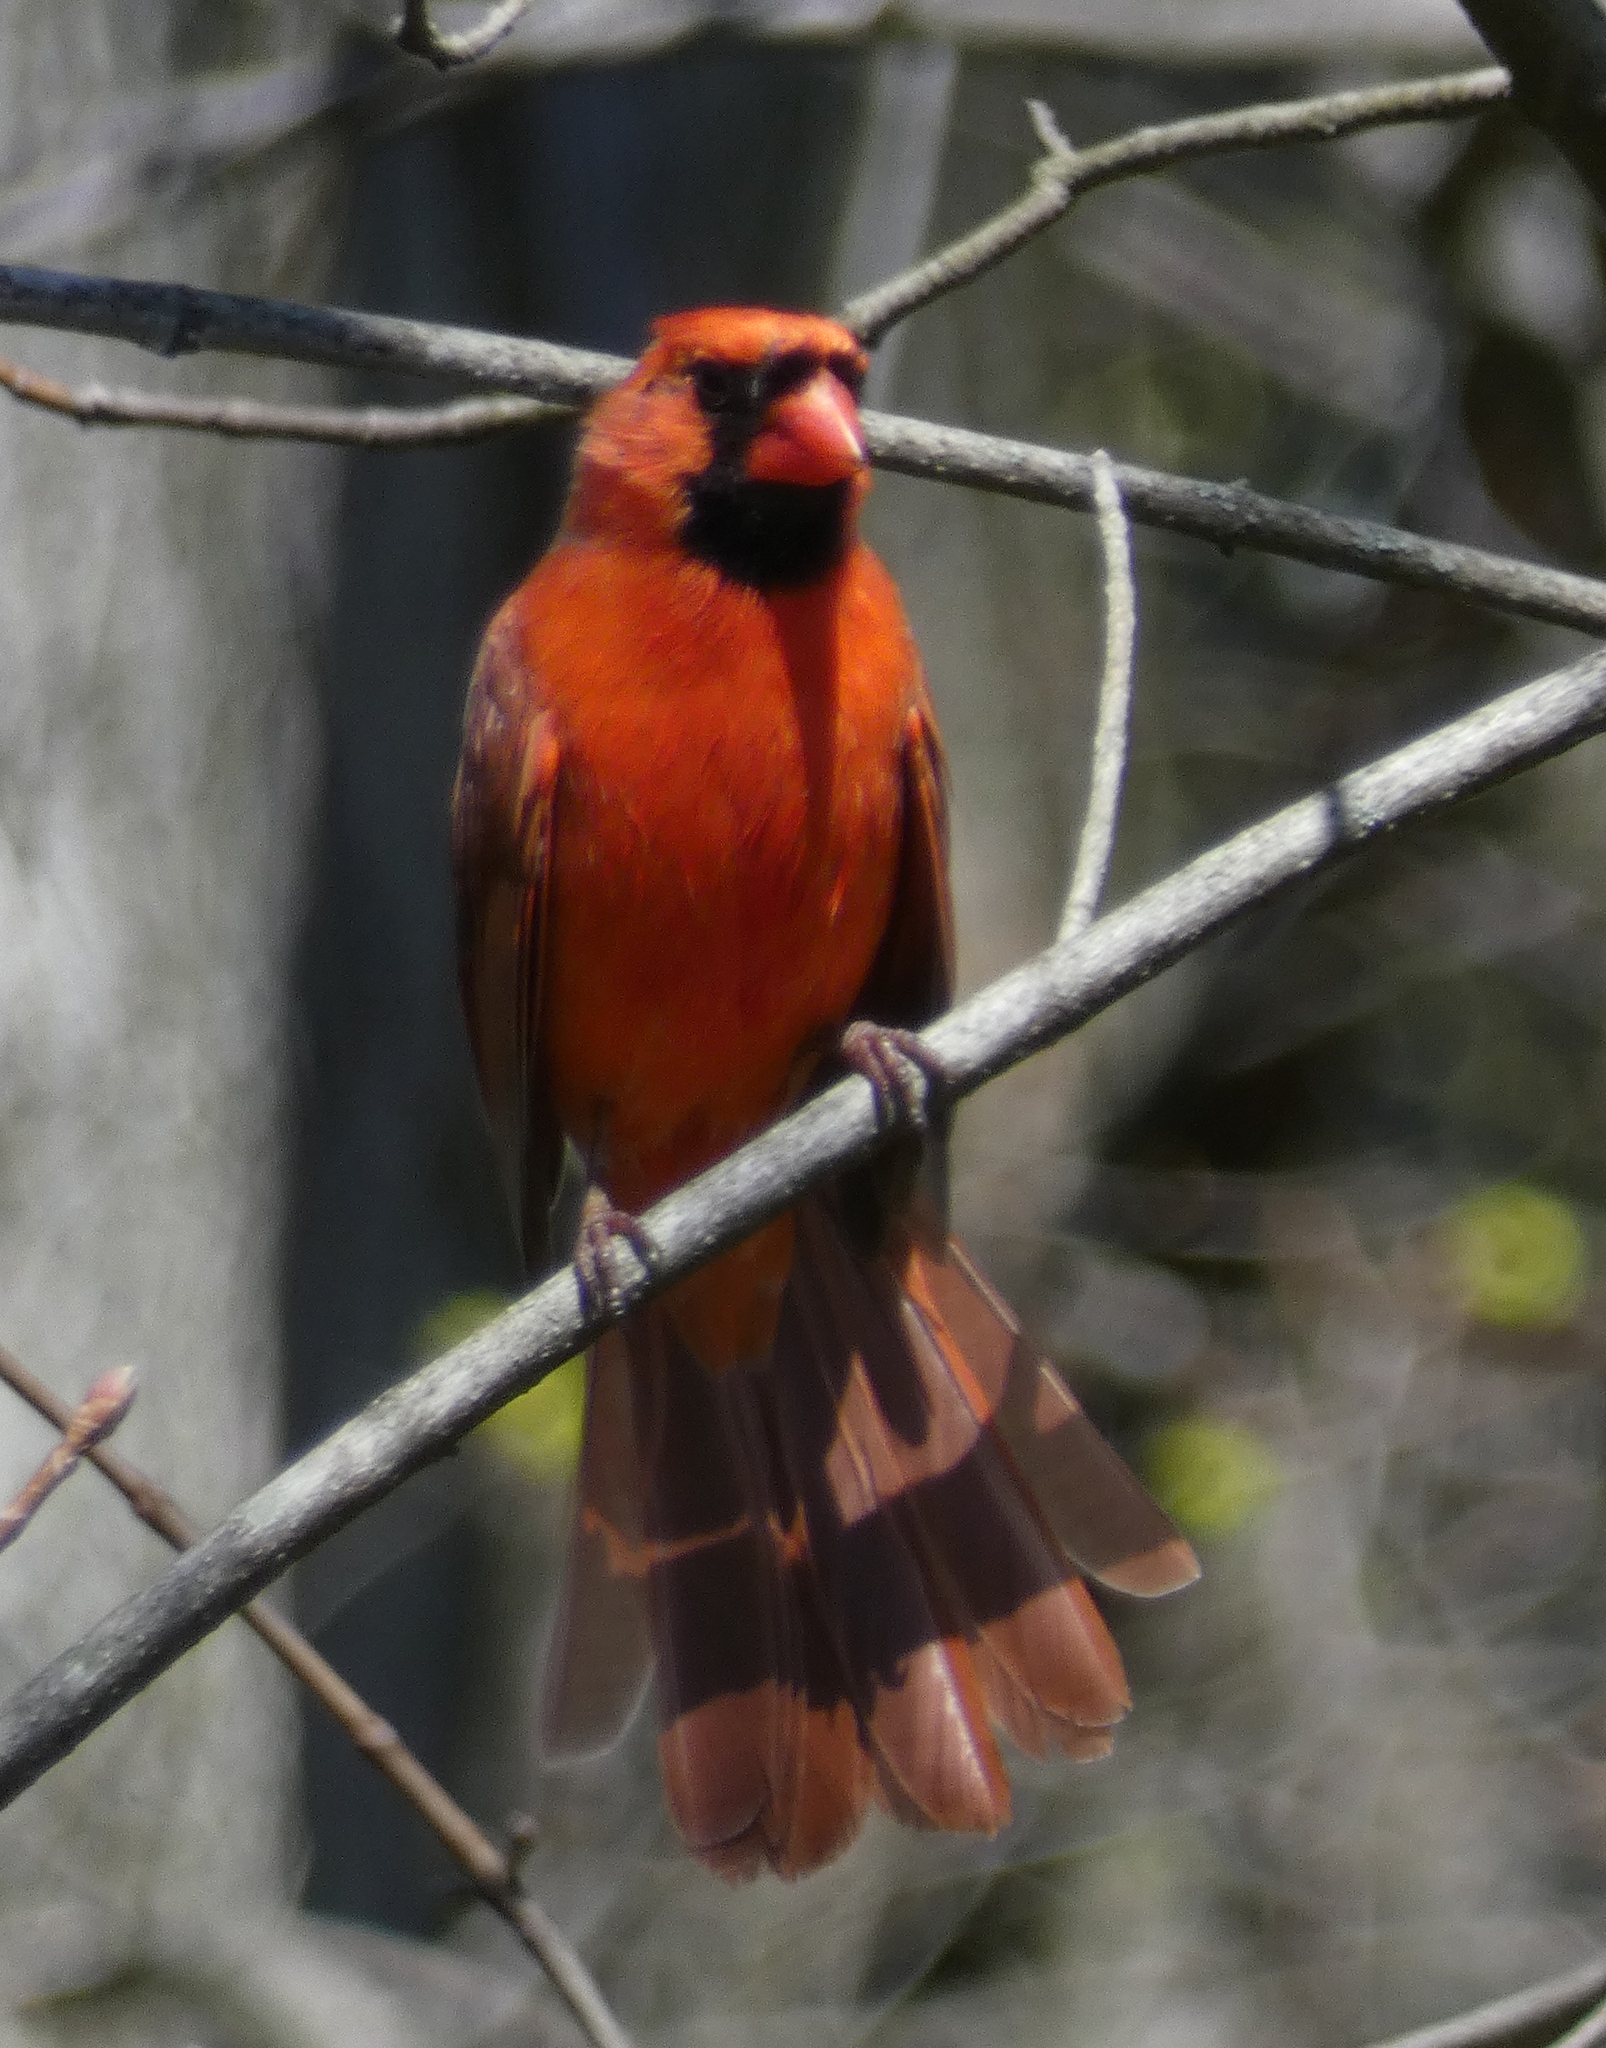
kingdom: Animalia
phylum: Chordata
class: Aves
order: Passeriformes
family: Cardinalidae
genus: Cardinalis
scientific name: Cardinalis cardinalis
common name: Northern cardinal
